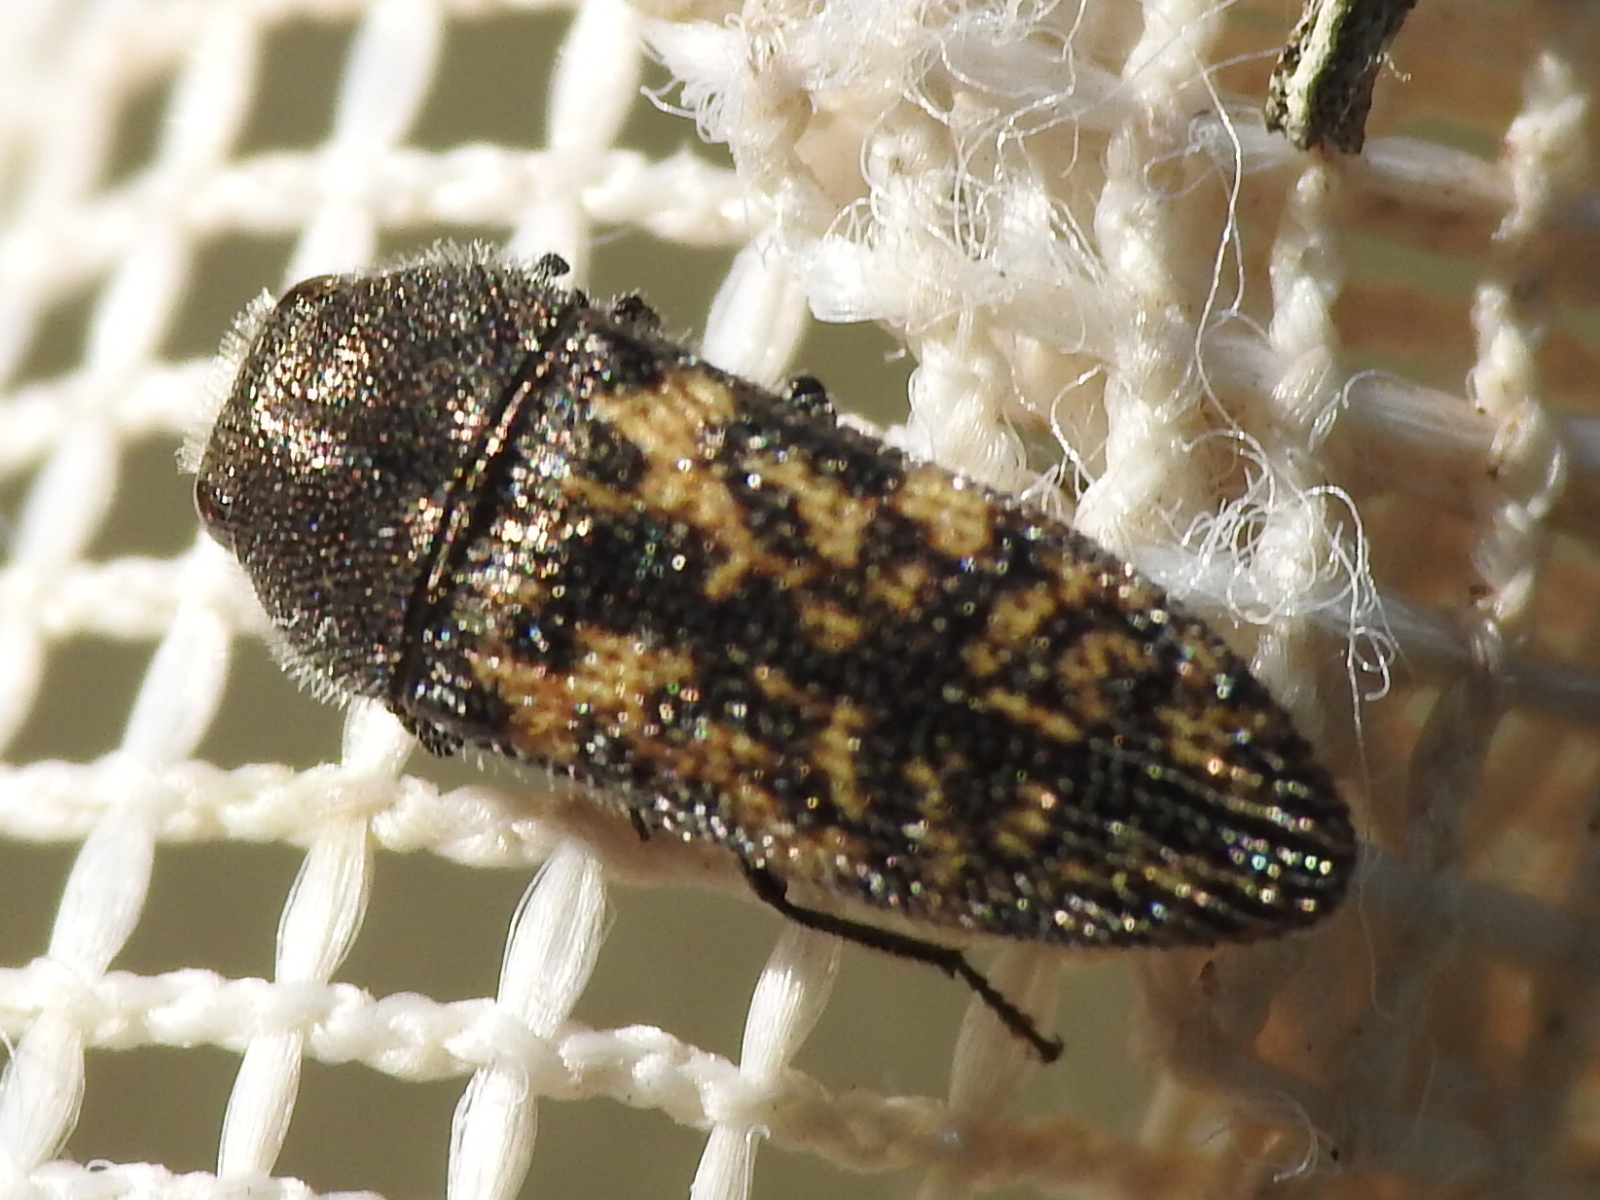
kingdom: Animalia
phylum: Arthropoda
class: Insecta
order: Coleoptera
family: Buprestidae
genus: Acmaeodera
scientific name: Acmaeodera neglecta
